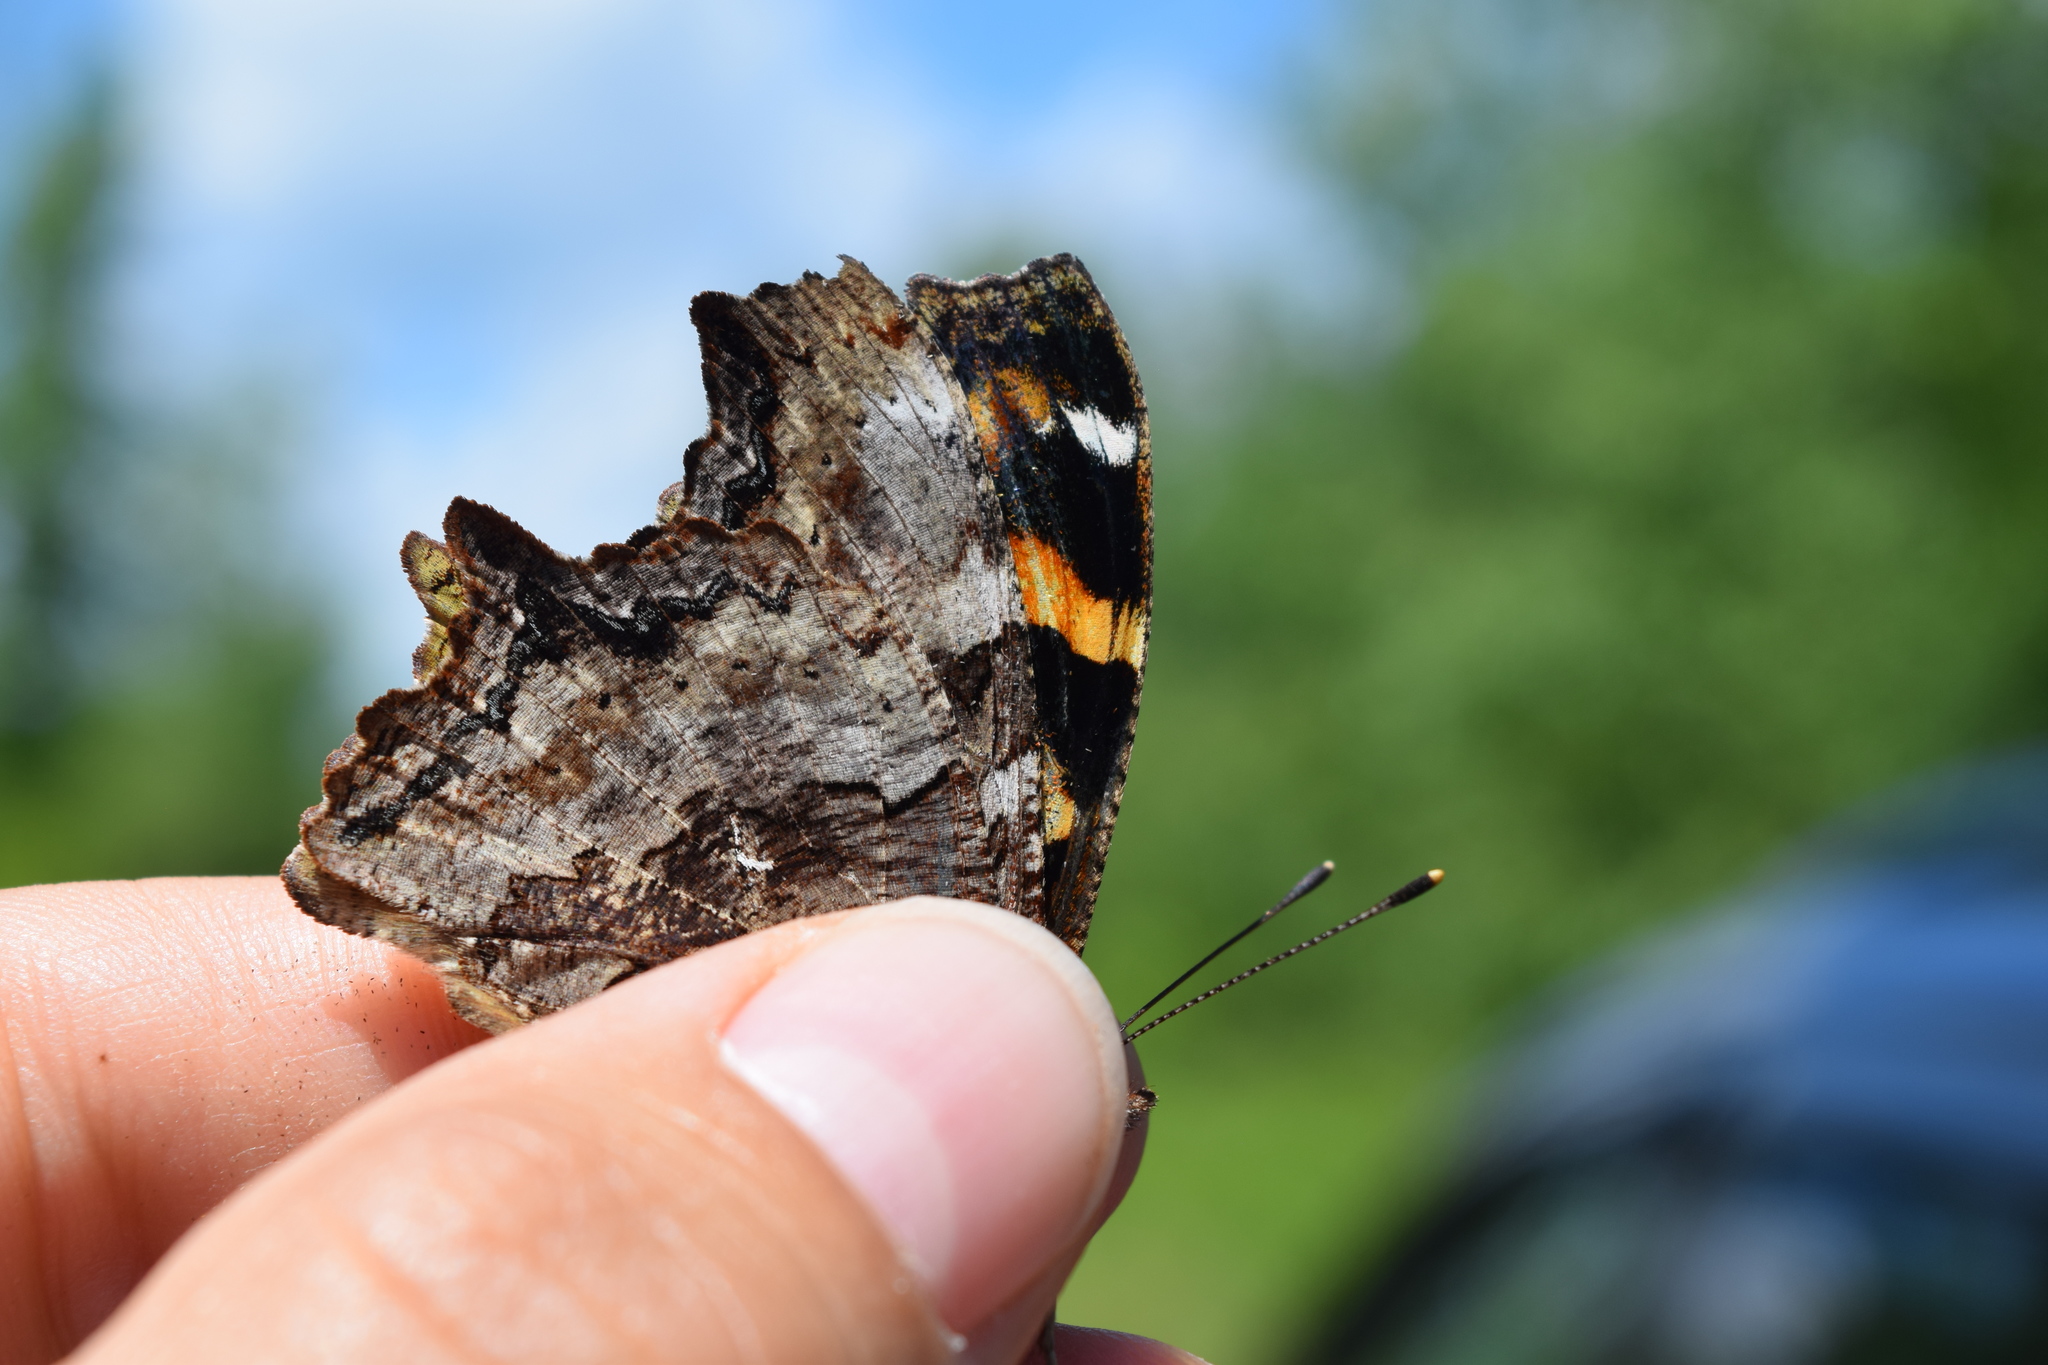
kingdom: Animalia
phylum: Arthropoda
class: Insecta
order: Lepidoptera
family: Nymphalidae
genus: Polygonia
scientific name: Polygonia vaualbum
